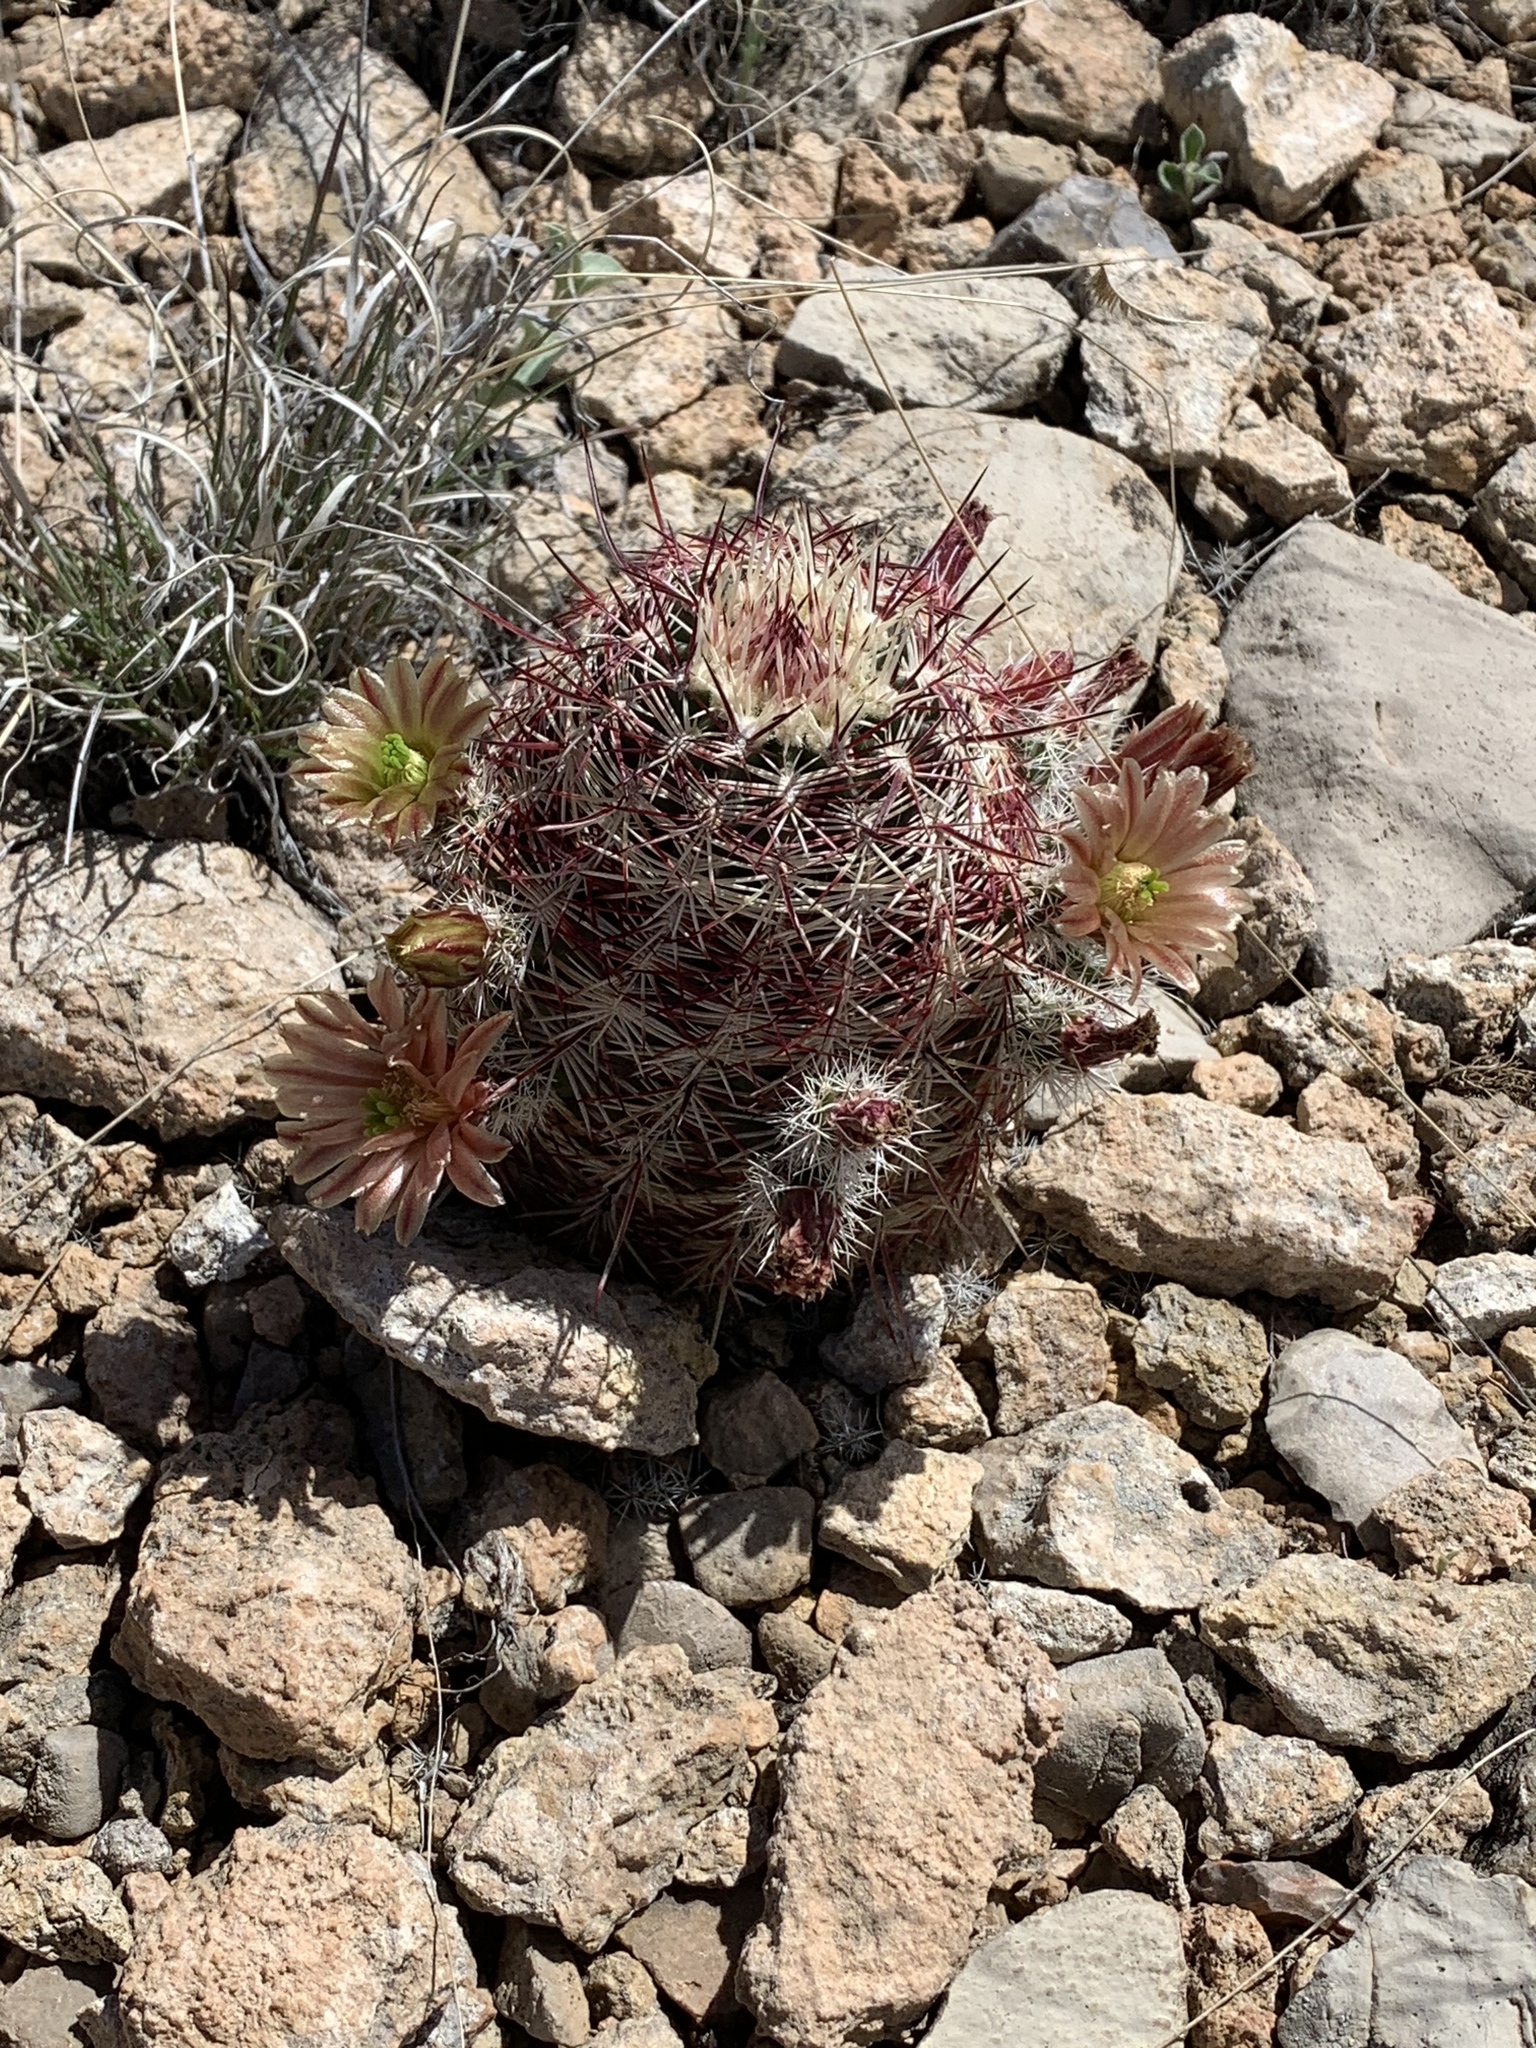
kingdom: Plantae
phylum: Tracheophyta
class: Magnoliopsida
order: Caryophyllales
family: Cactaceae
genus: Echinocereus
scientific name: Echinocereus viridiflorus
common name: Nylon hedgehog cactus
